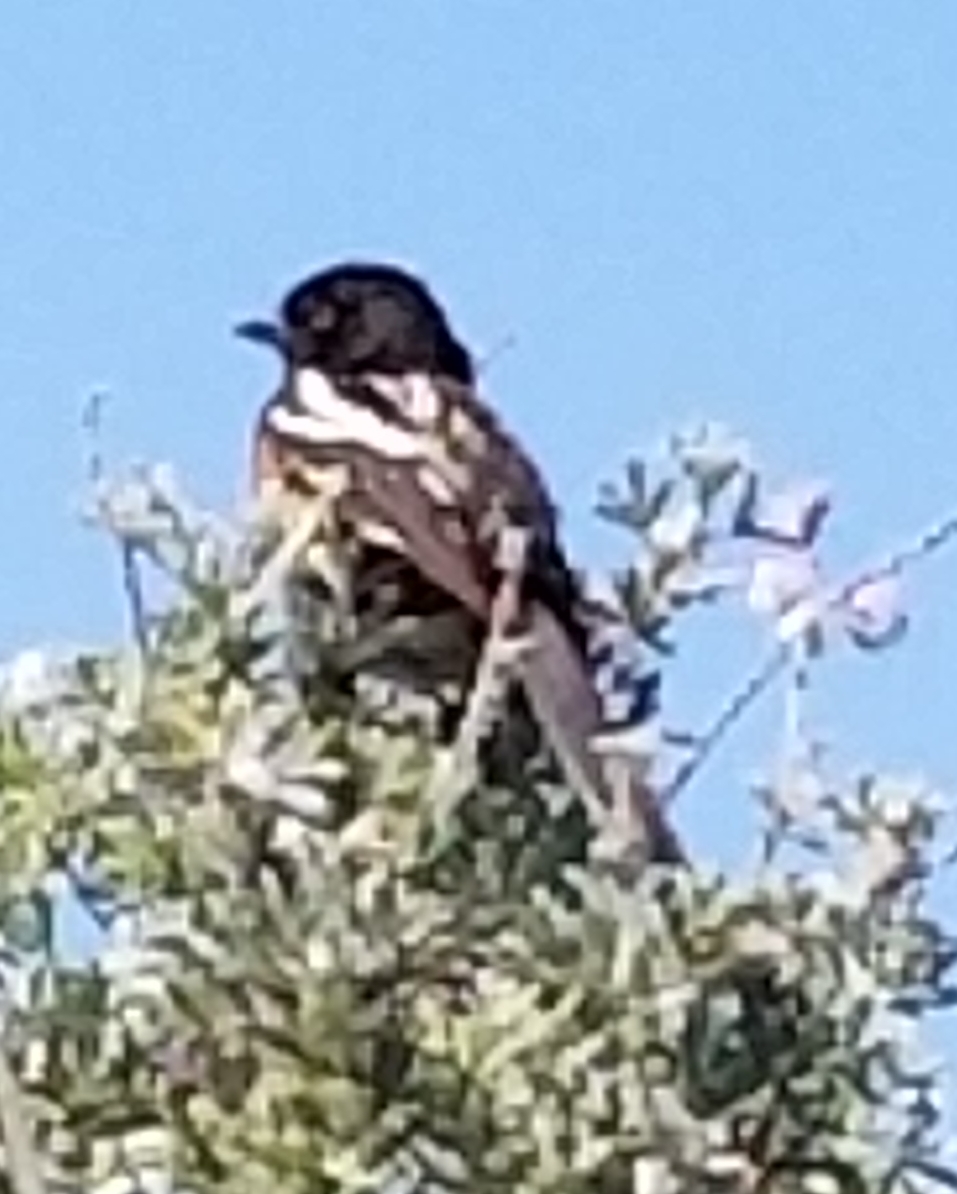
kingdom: Animalia
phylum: Chordata
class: Aves
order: Passeriformes
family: Passerellidae
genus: Pipilo
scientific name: Pipilo maculatus
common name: Spotted towhee
